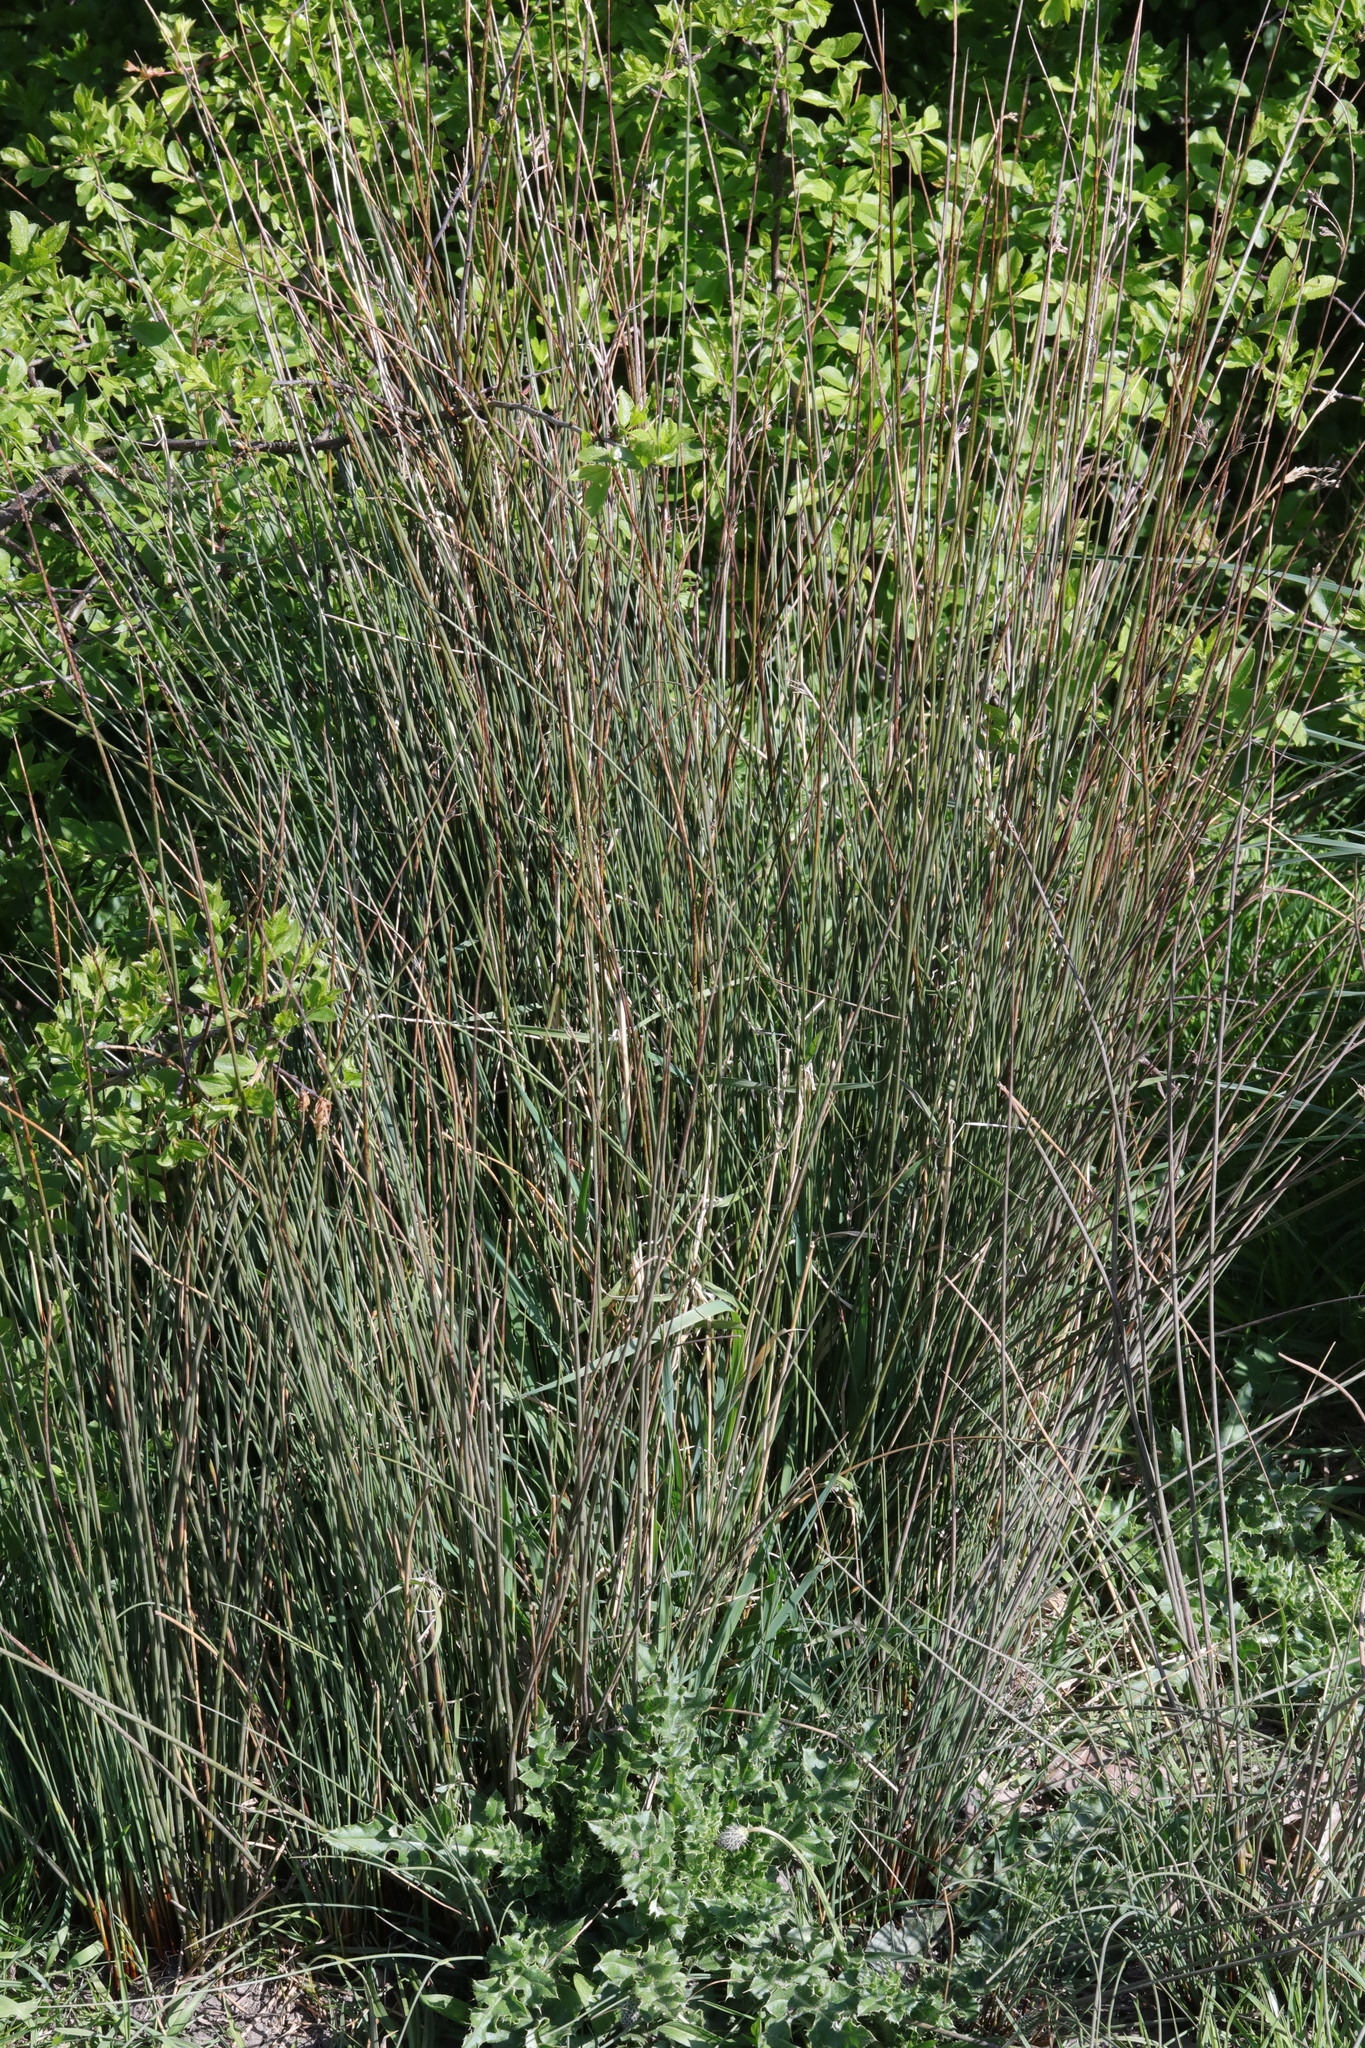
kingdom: Plantae
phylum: Tracheophyta
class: Liliopsida
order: Poales
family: Juncaceae
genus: Juncus
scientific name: Juncus inflexus
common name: Hard rush
